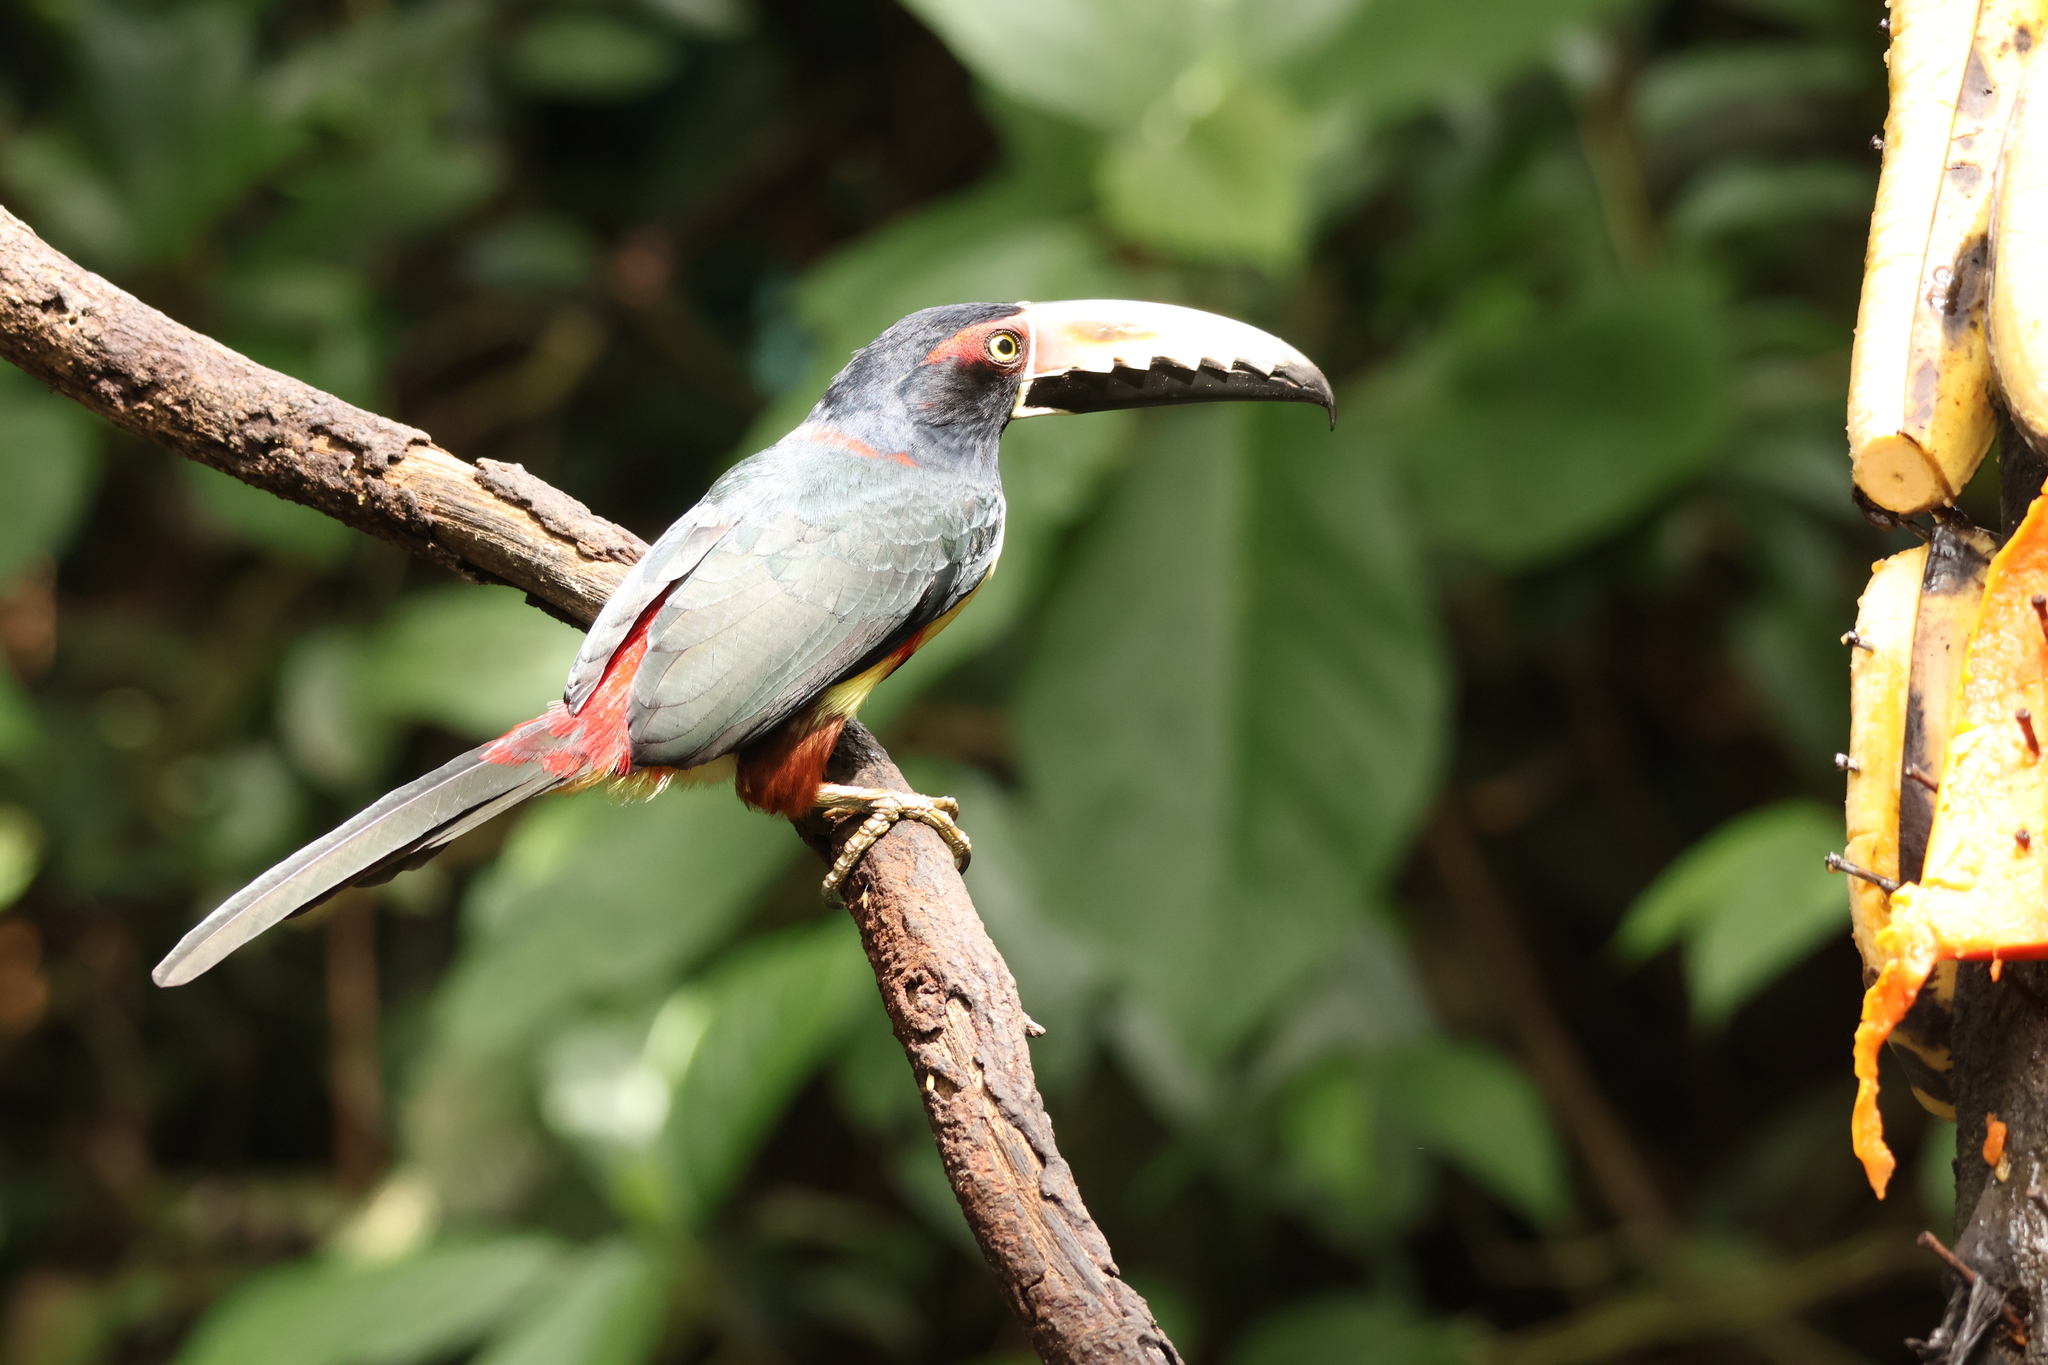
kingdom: Animalia
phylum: Chordata
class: Aves
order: Piciformes
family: Ramphastidae
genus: Pteroglossus
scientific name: Pteroglossus torquatus
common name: Collared aracari
